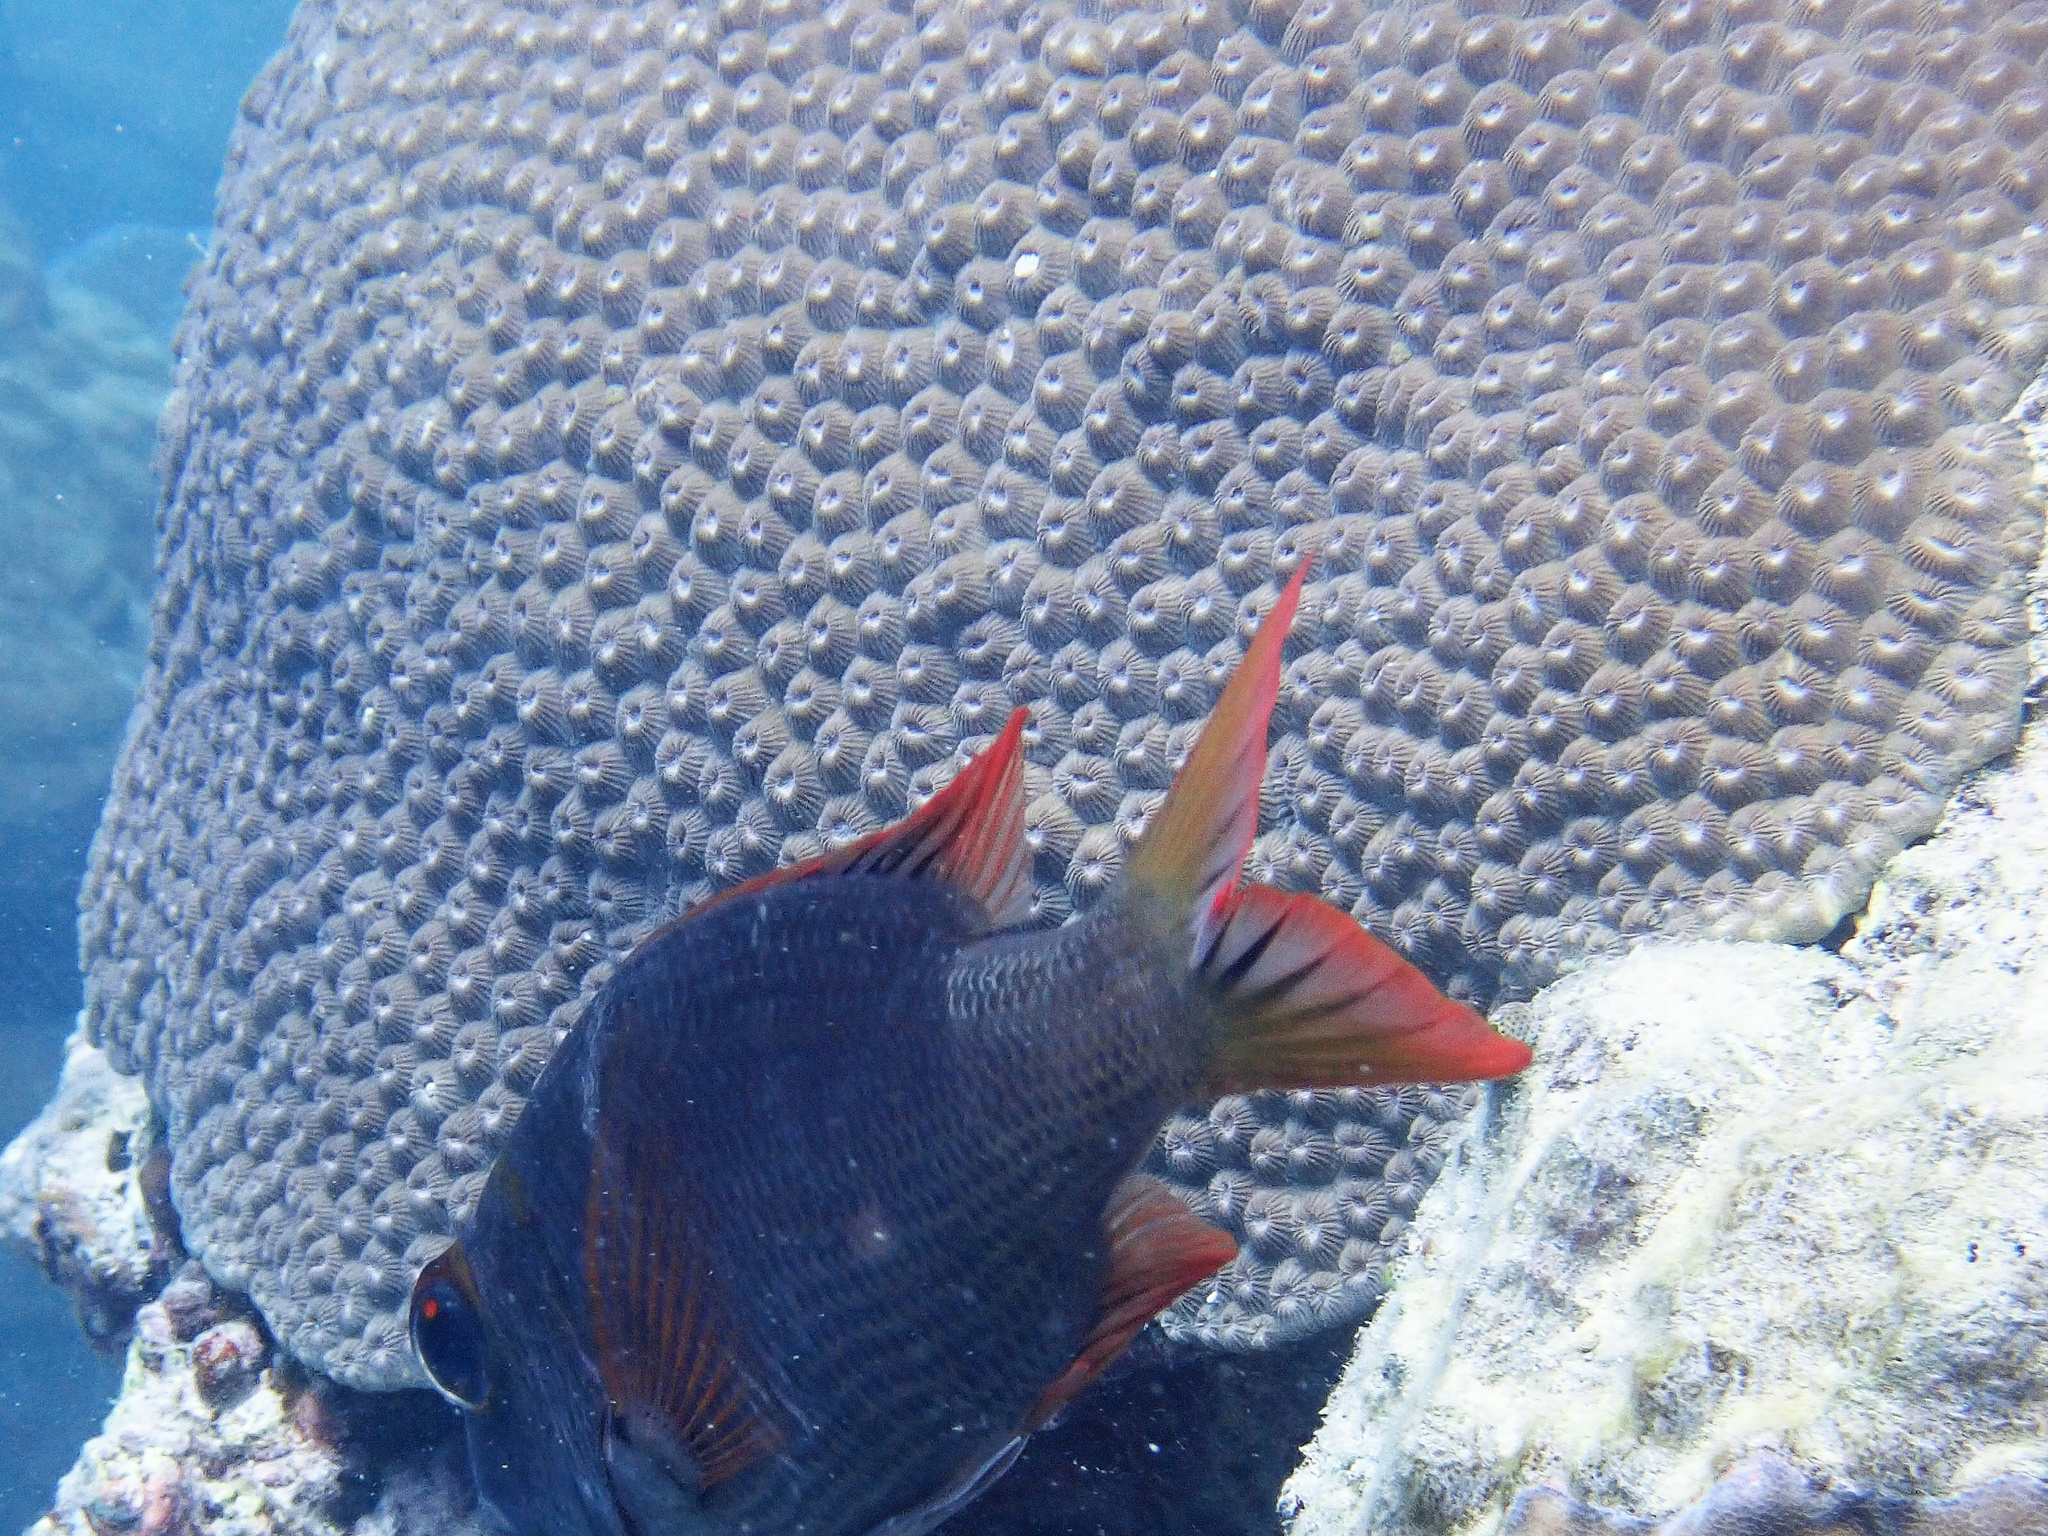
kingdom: Animalia
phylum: Cnidaria
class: Anthozoa
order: Scleractinia
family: Diploastraeidae
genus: Diploastrea
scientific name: Diploastrea heliopora
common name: Double-star coral
